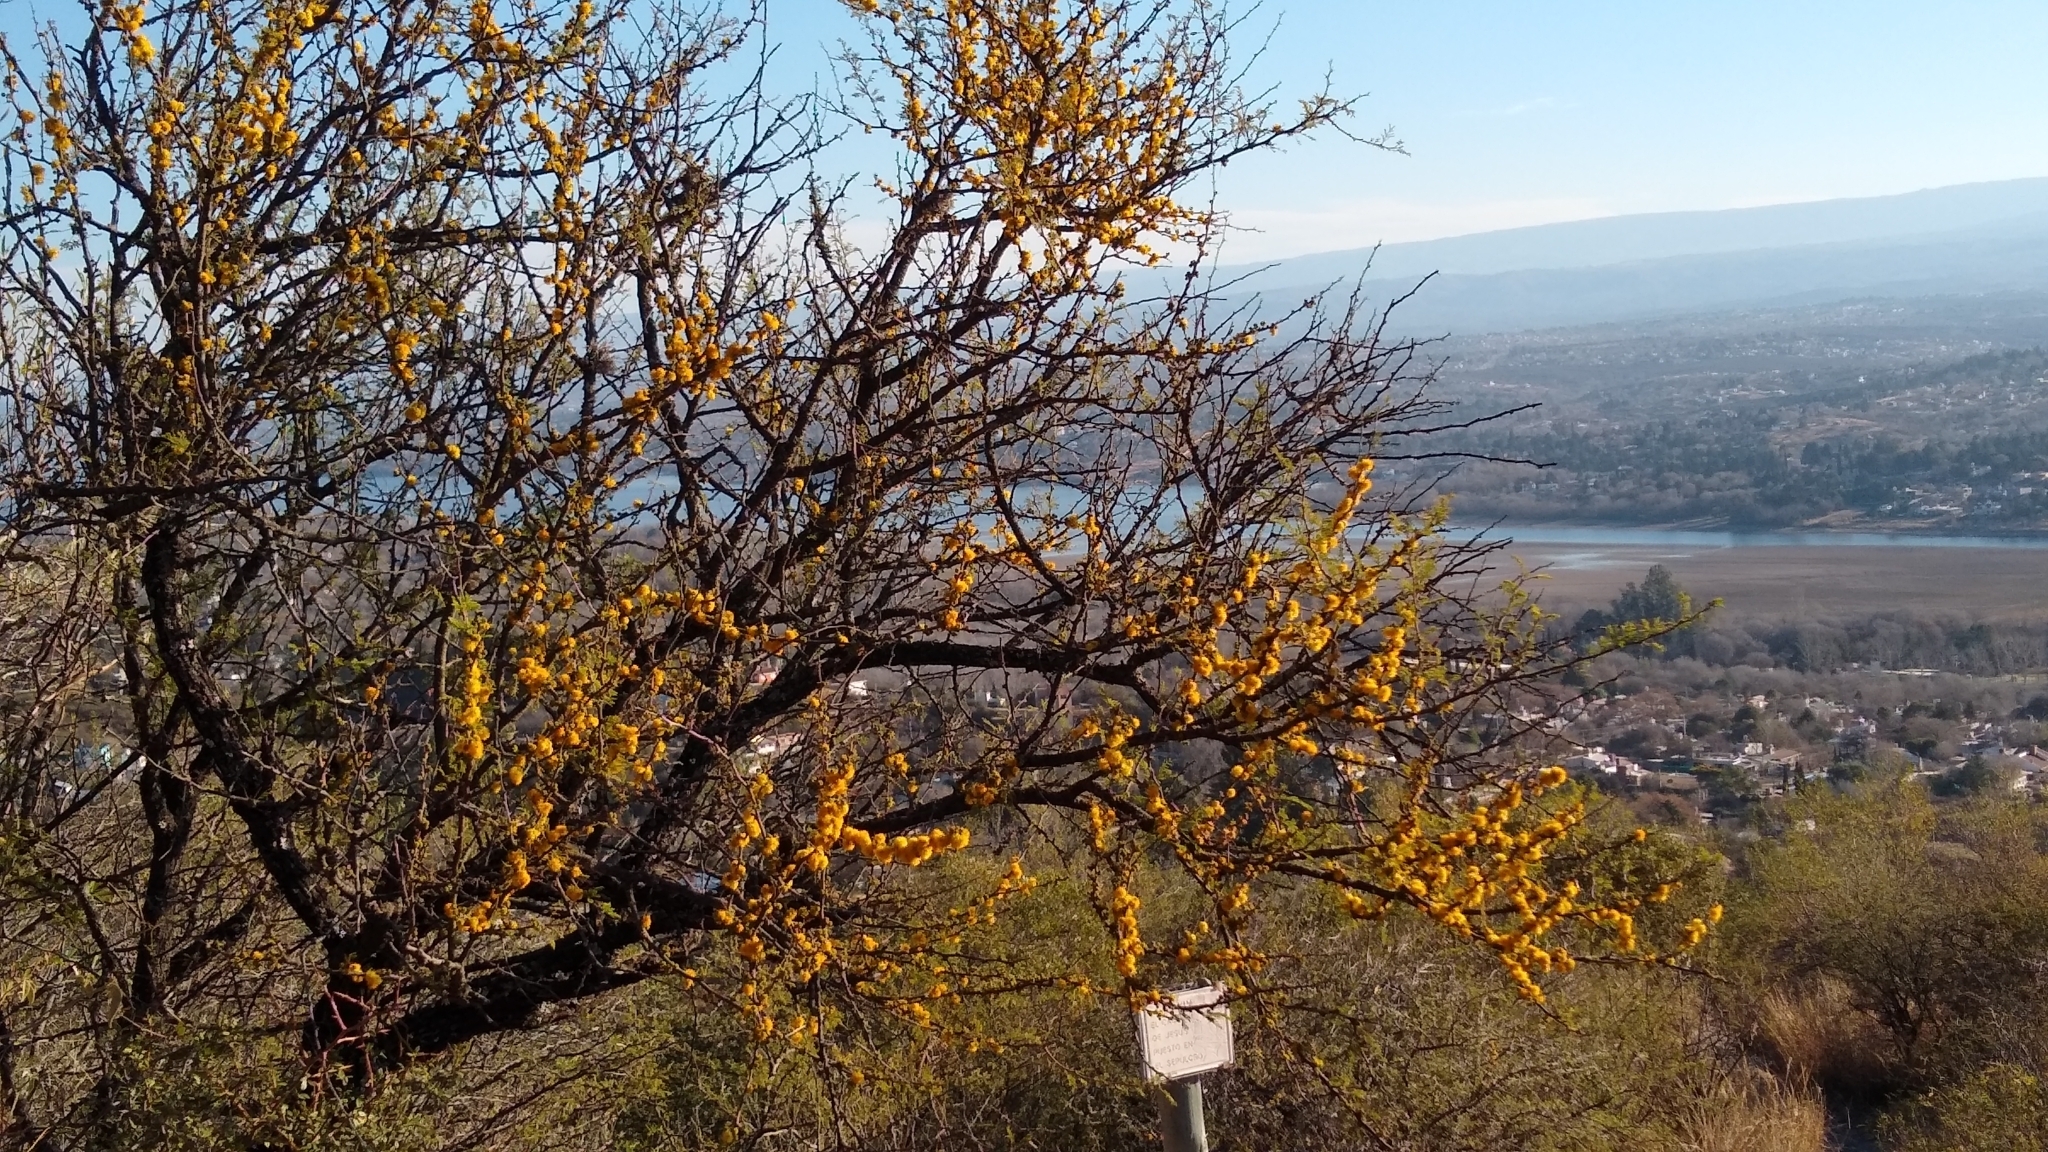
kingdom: Plantae
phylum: Tracheophyta
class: Magnoliopsida
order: Fabales
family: Fabaceae
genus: Vachellia
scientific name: Vachellia caven
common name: Roman cassie
